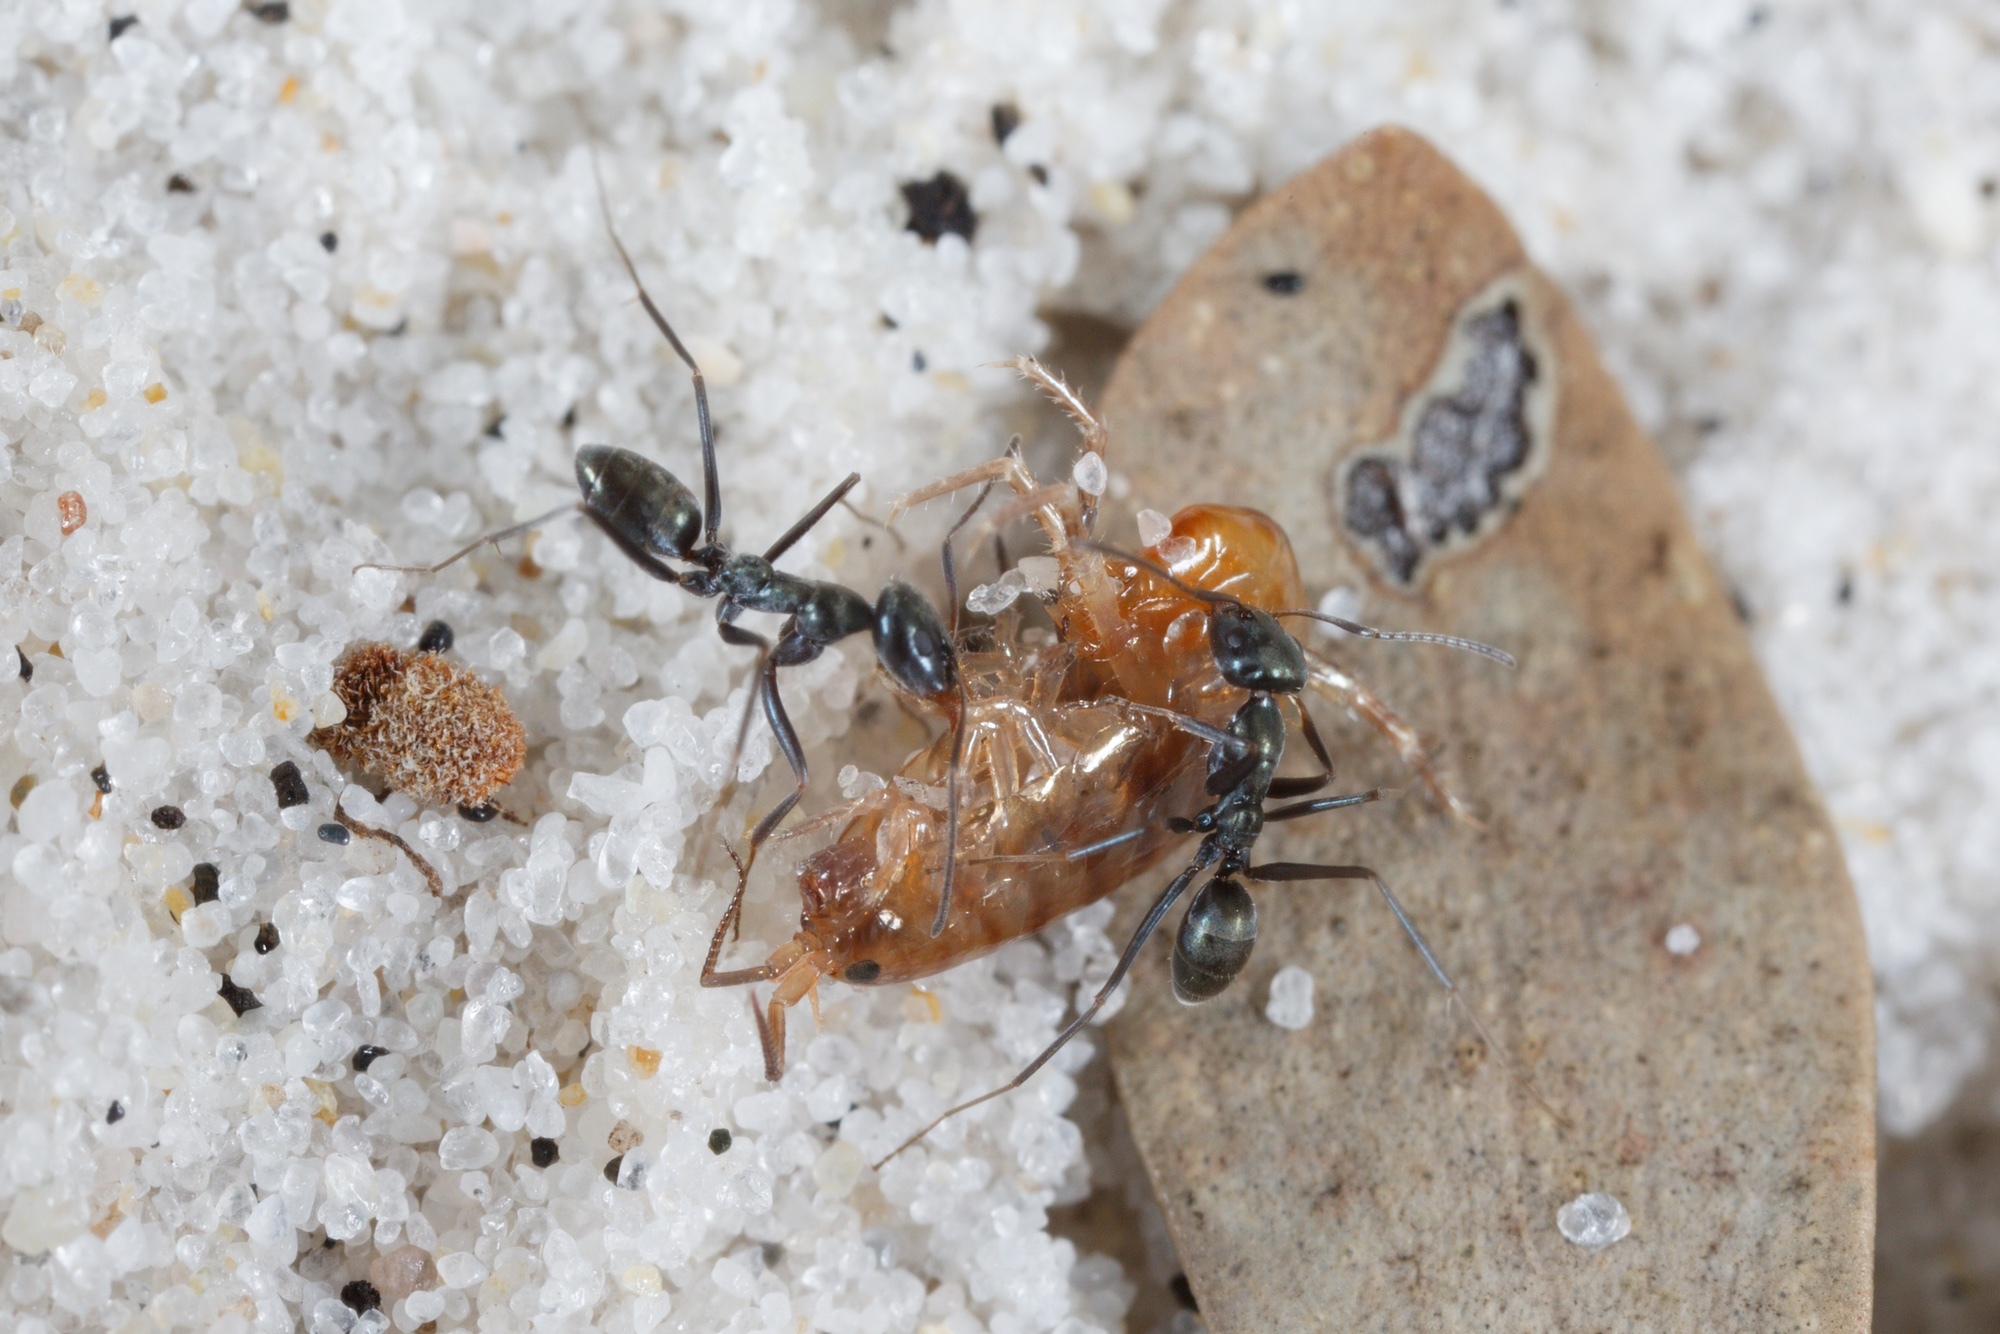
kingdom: Animalia
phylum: Arthropoda
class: Insecta
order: Hymenoptera
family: Formicidae
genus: Iridomyrmex
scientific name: Iridomyrmex bicknelli
